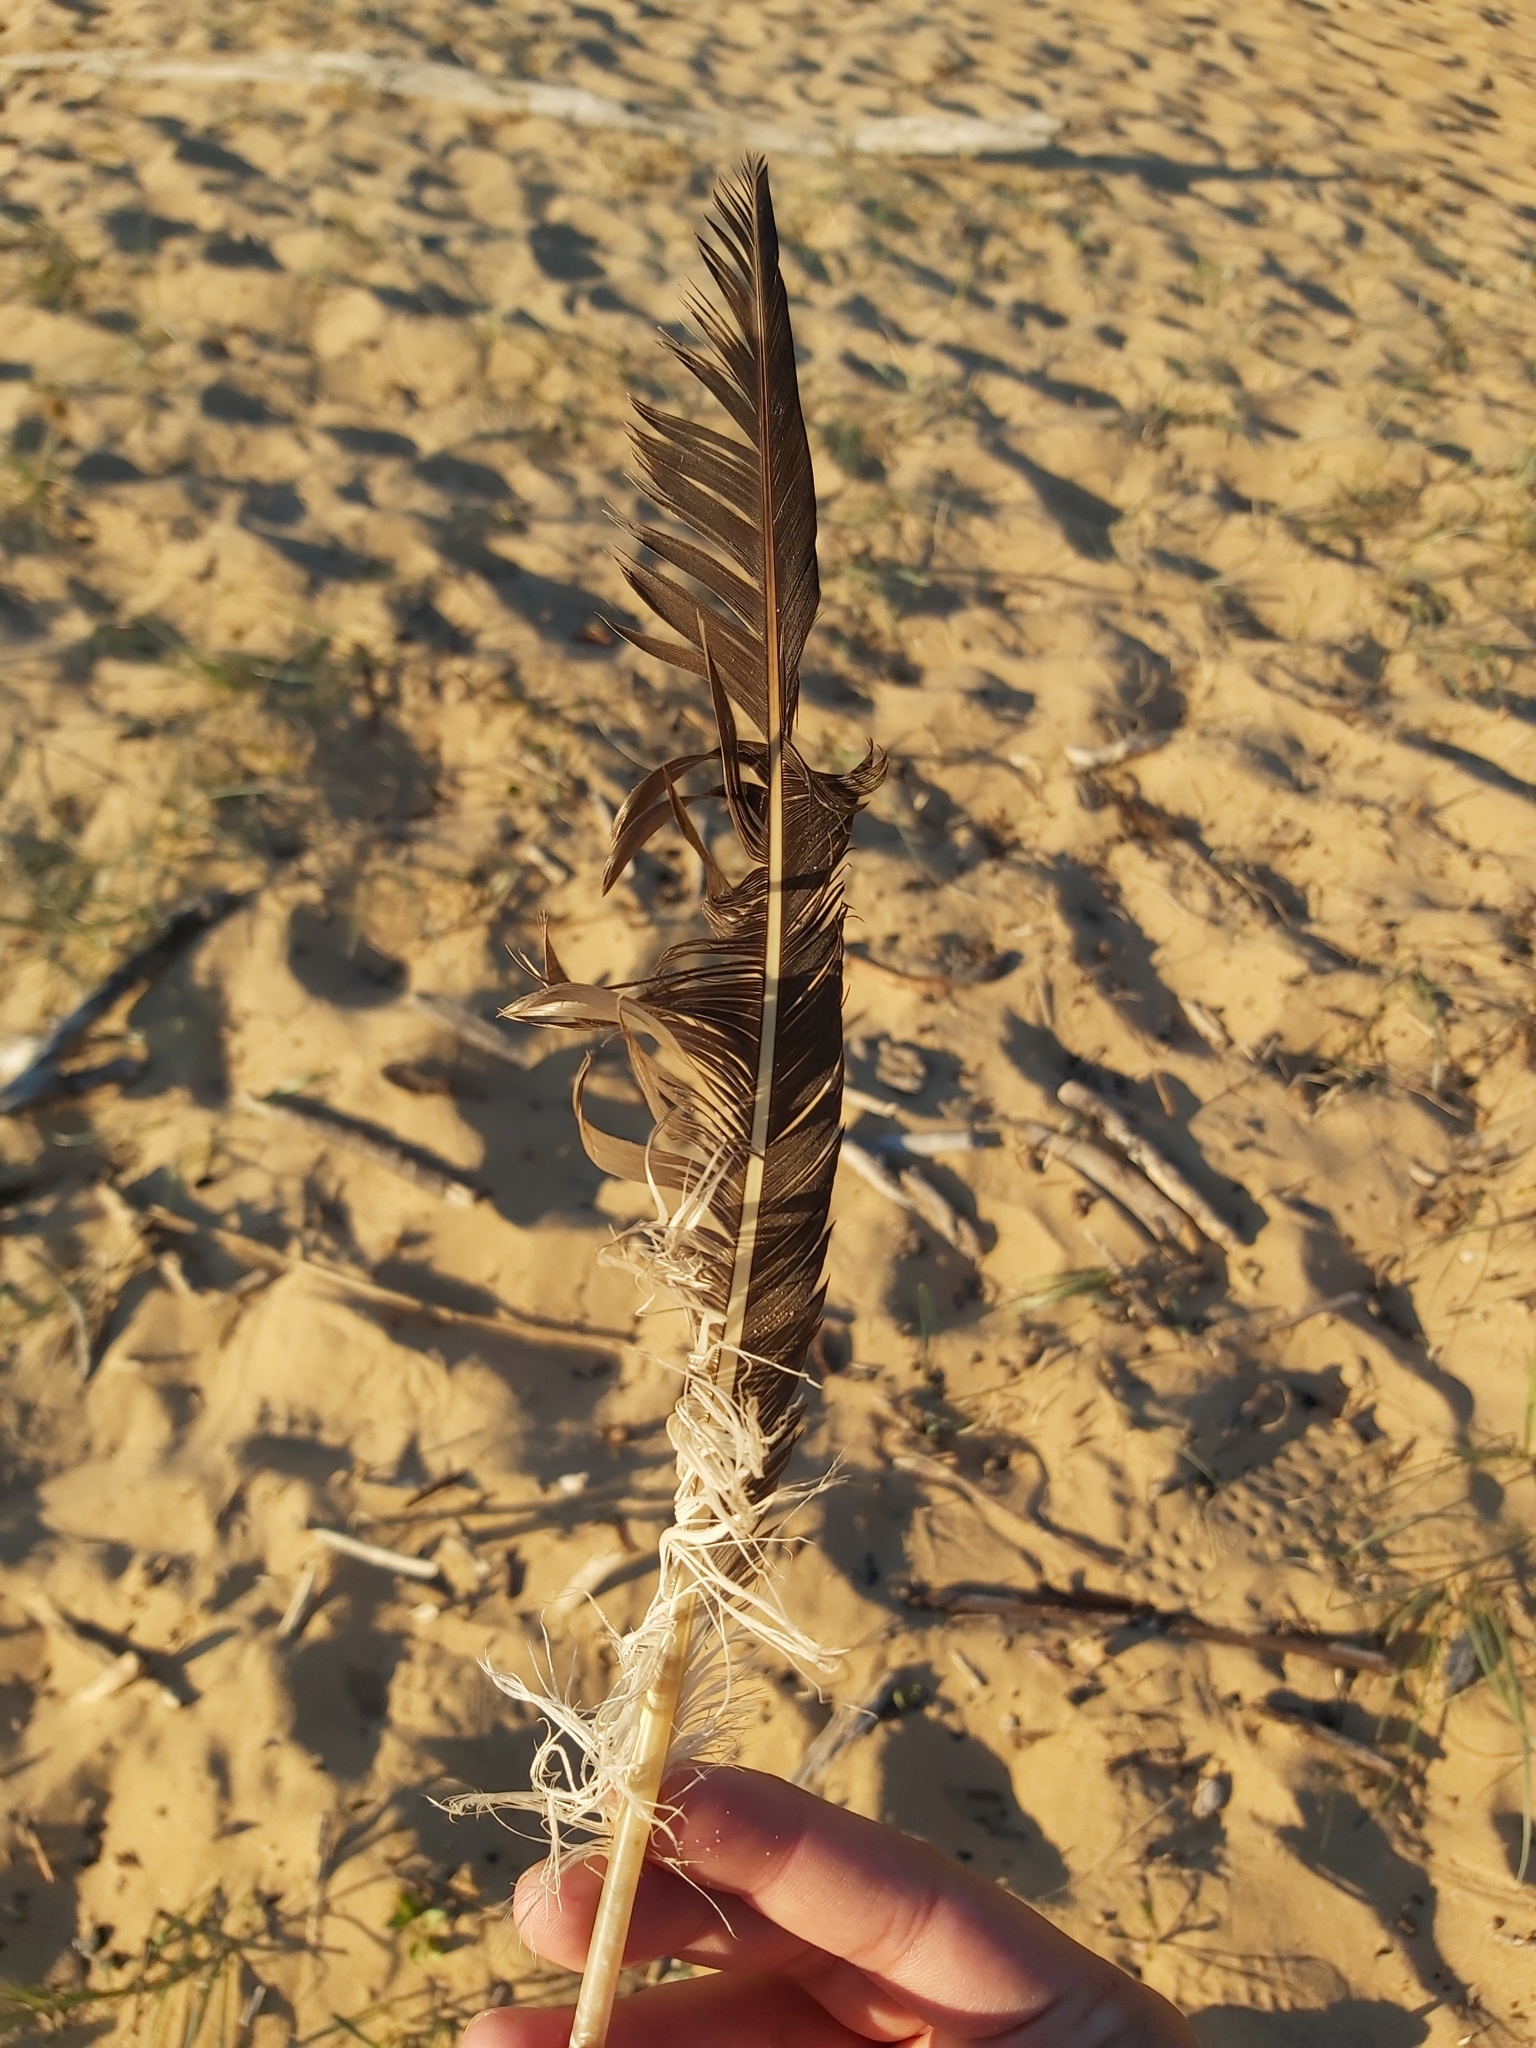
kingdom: Animalia
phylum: Chordata
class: Aves
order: Suliformes
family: Sulidae
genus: Morus
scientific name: Morus serrator
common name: Australasian gannet
